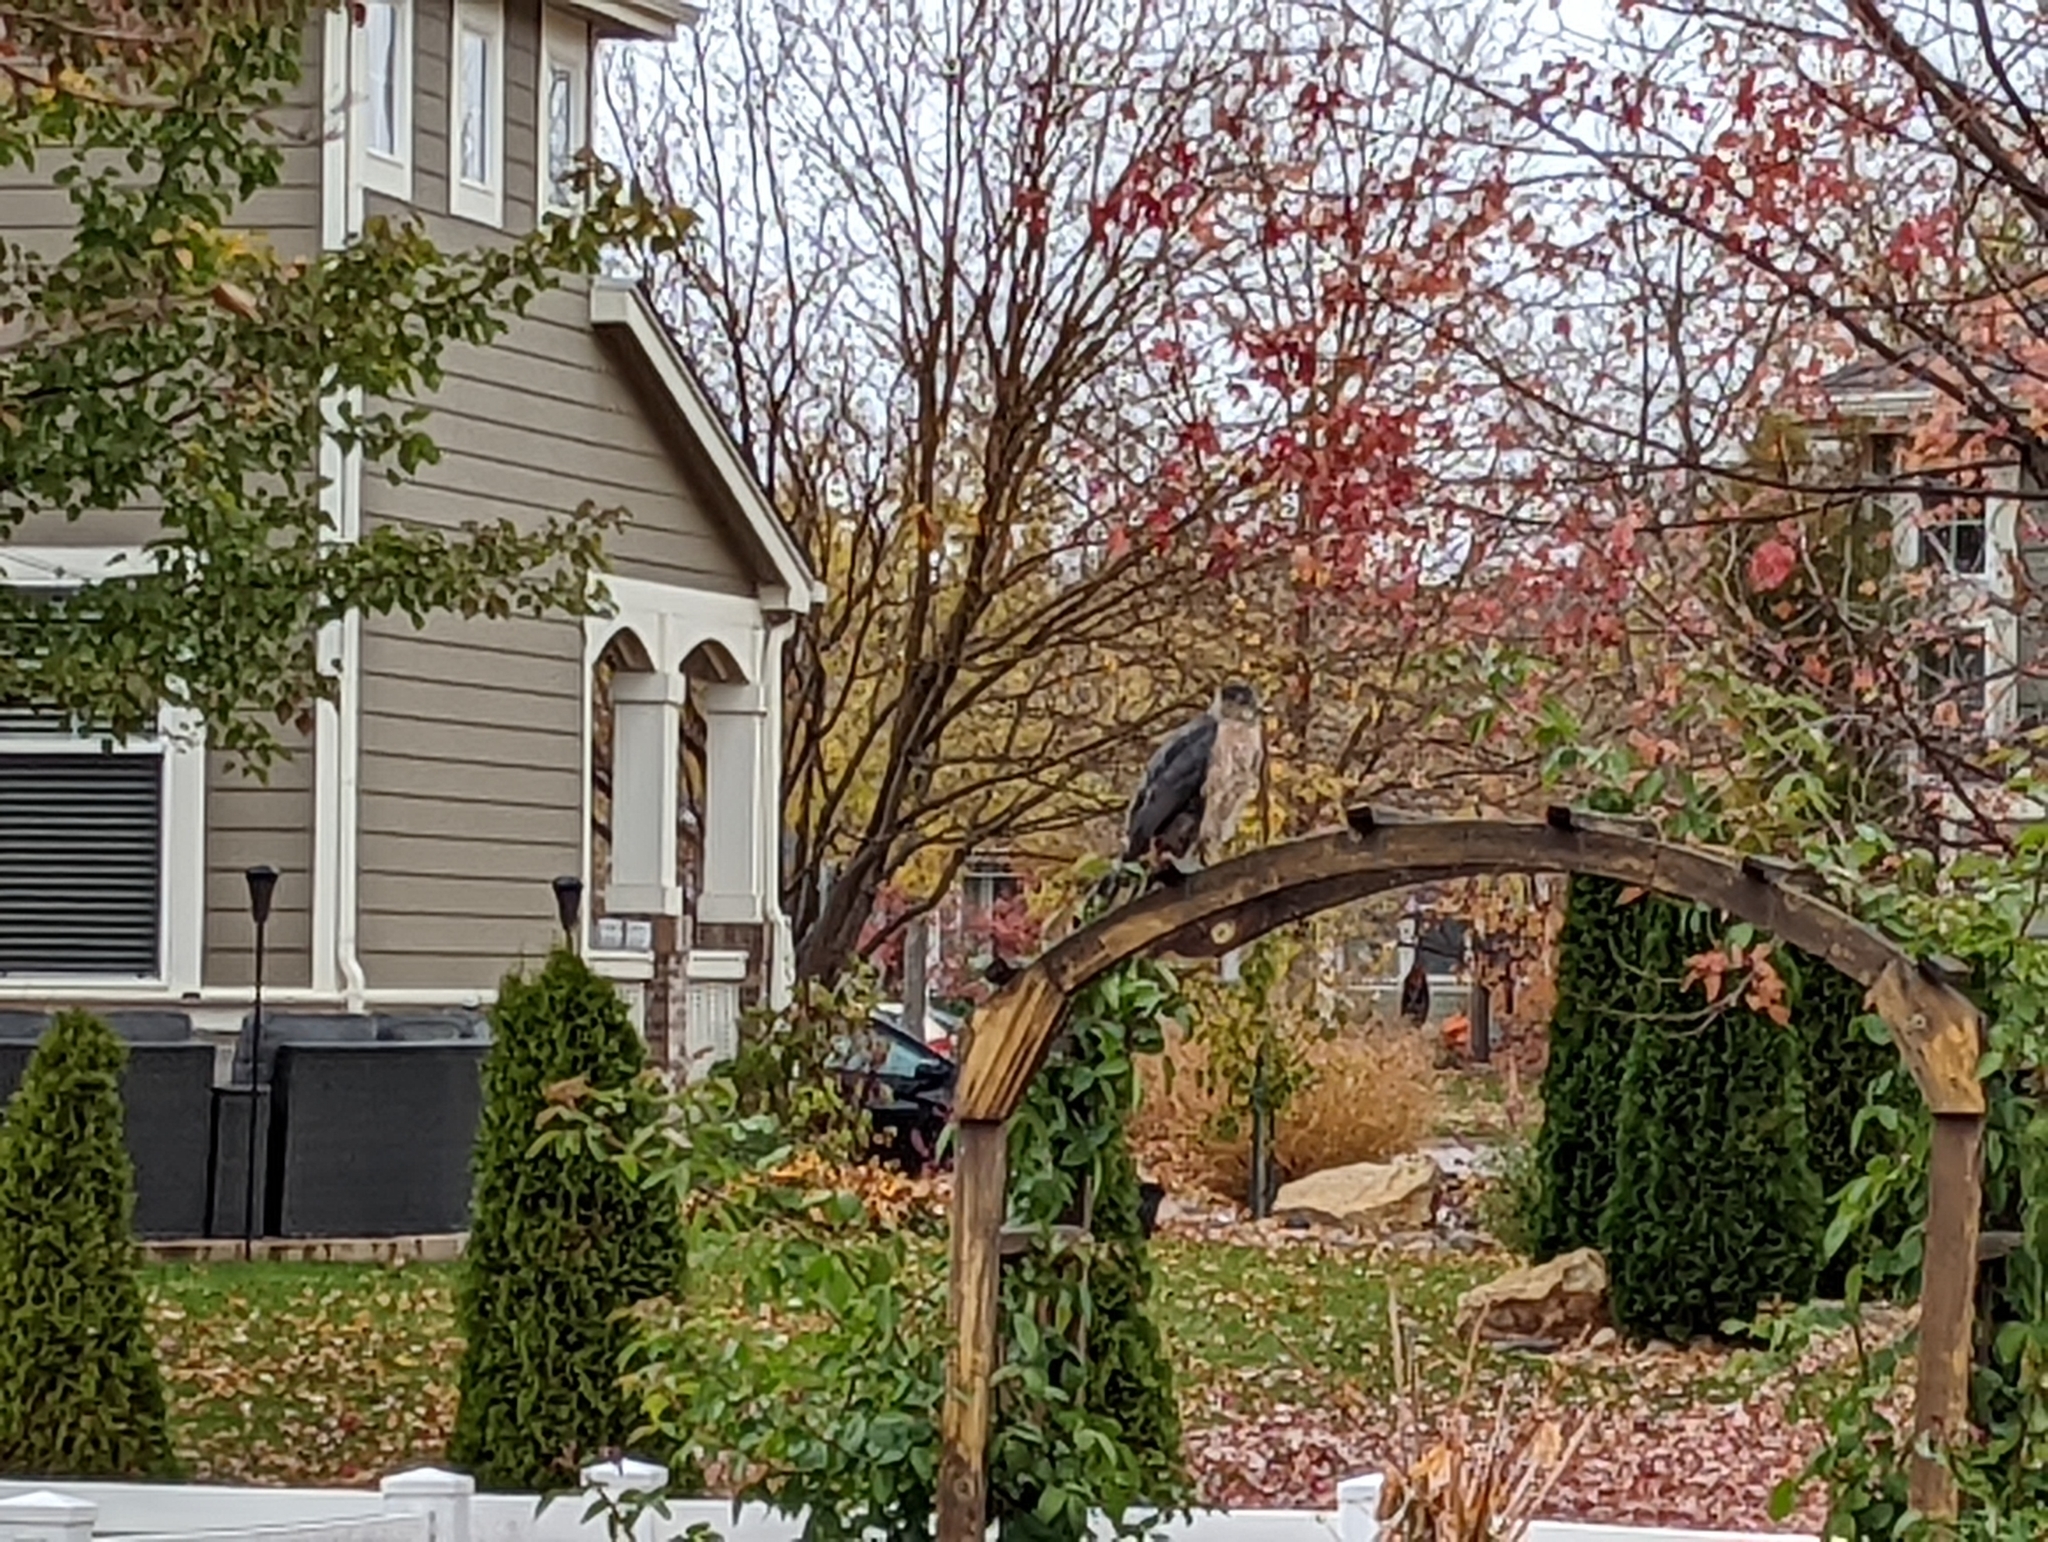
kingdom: Animalia
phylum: Chordata
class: Aves
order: Accipitriformes
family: Accipitridae
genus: Accipiter
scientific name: Accipiter cooperii
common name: Cooper's hawk
